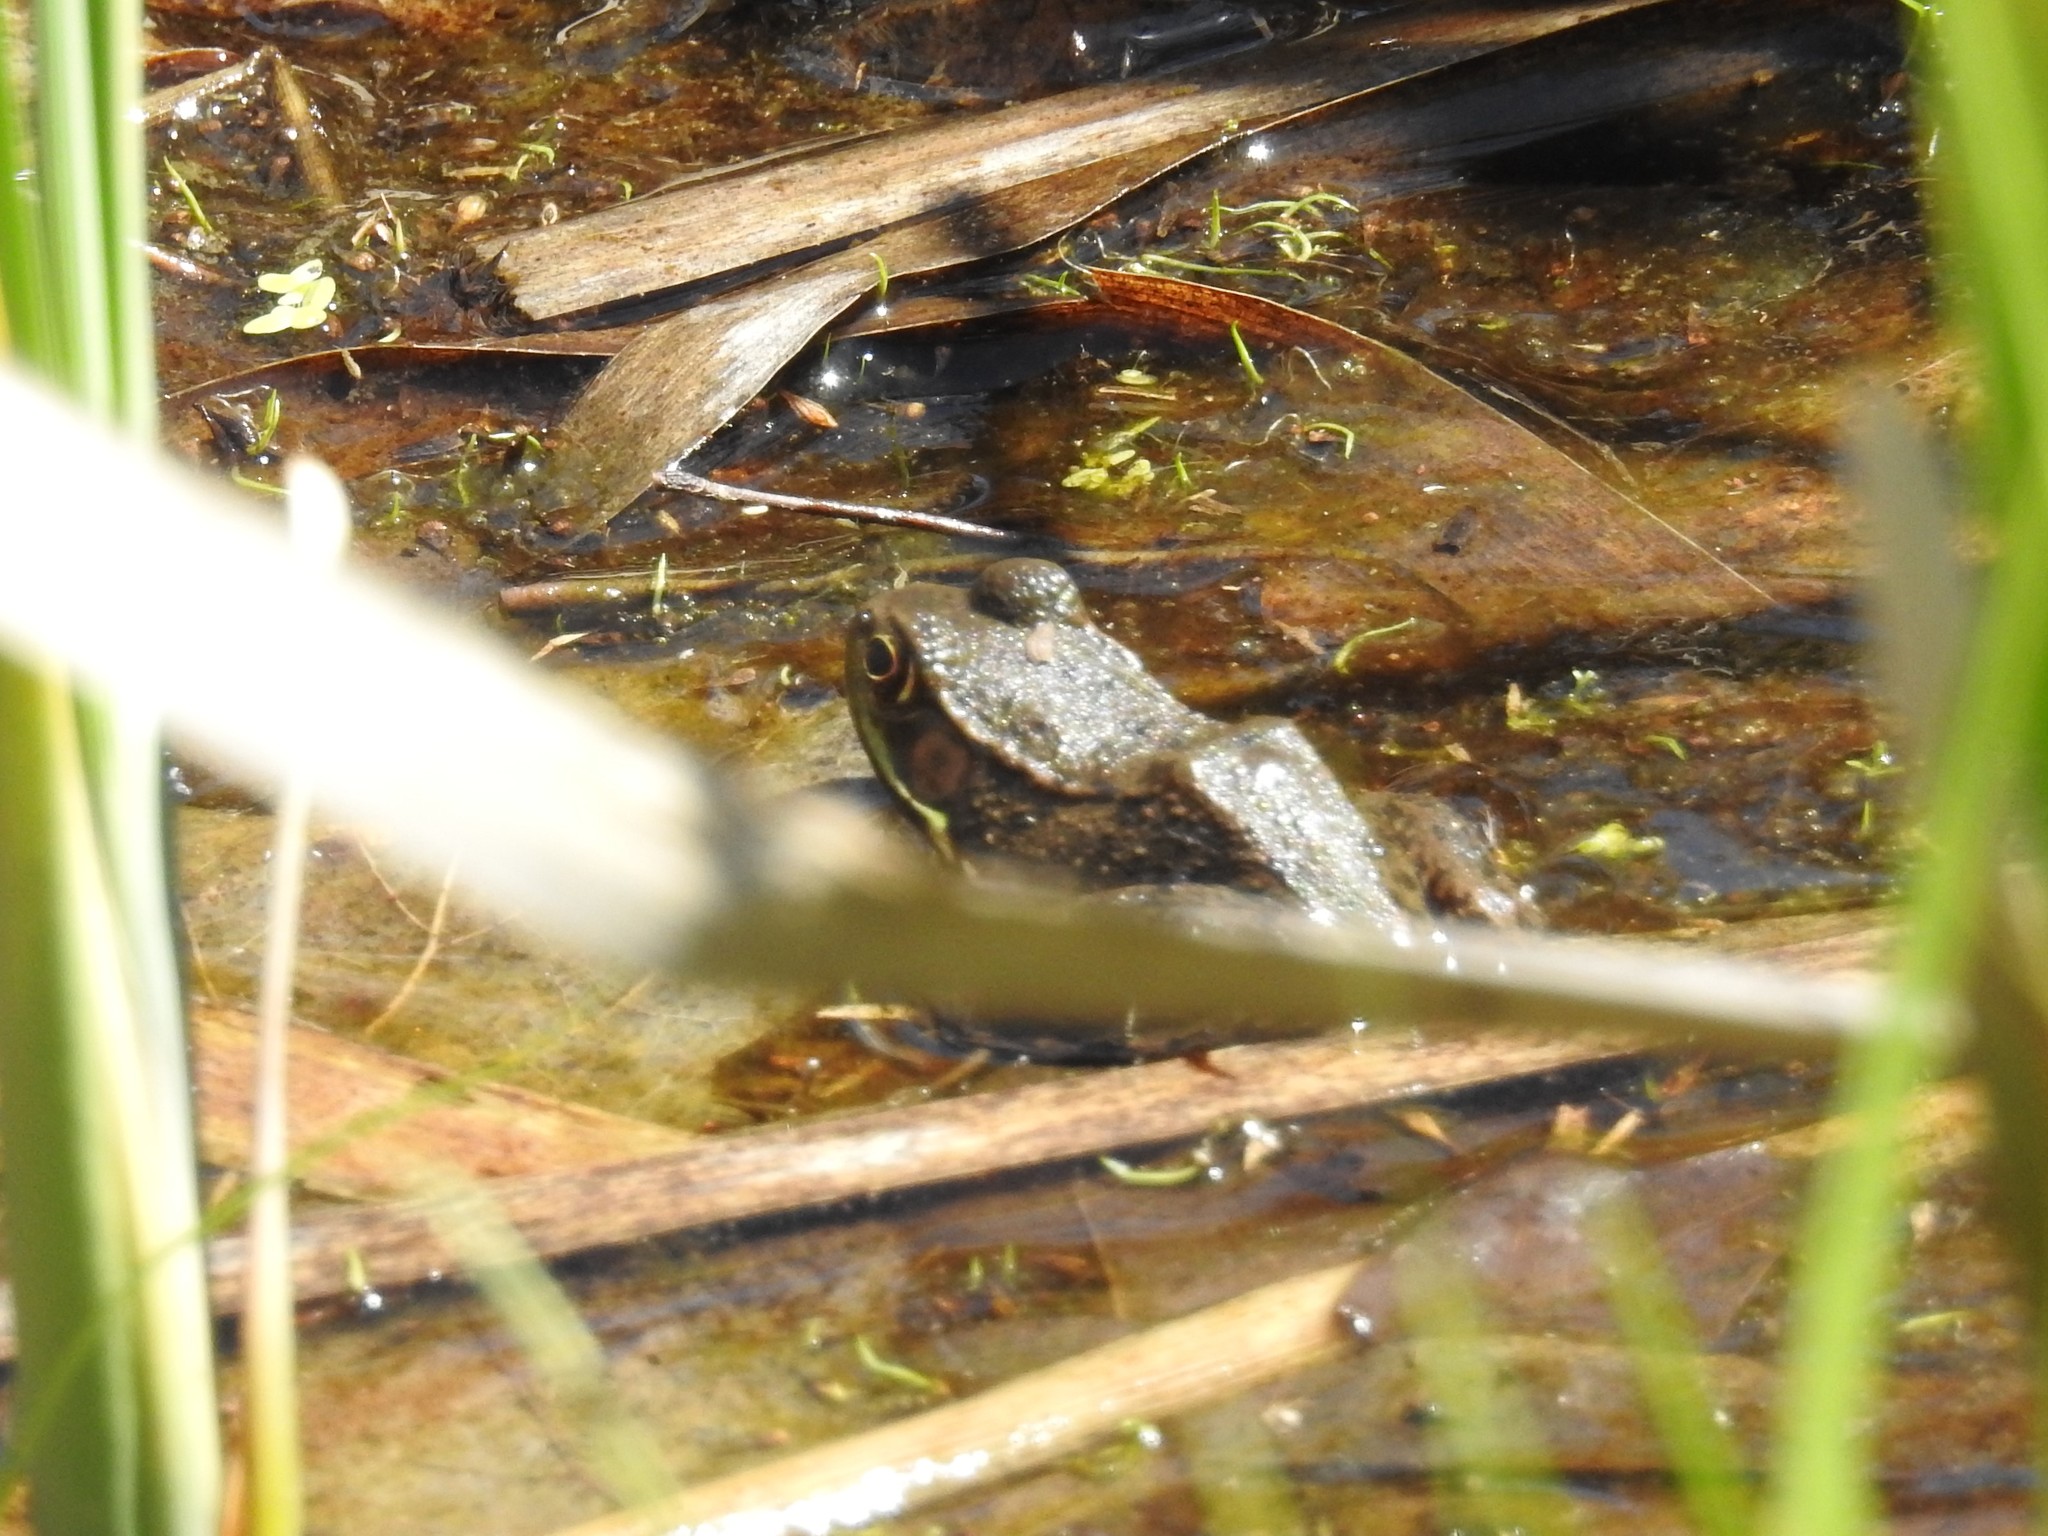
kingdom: Animalia
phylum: Chordata
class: Amphibia
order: Anura
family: Ranidae
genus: Lithobates
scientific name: Lithobates clamitans
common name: Green frog
